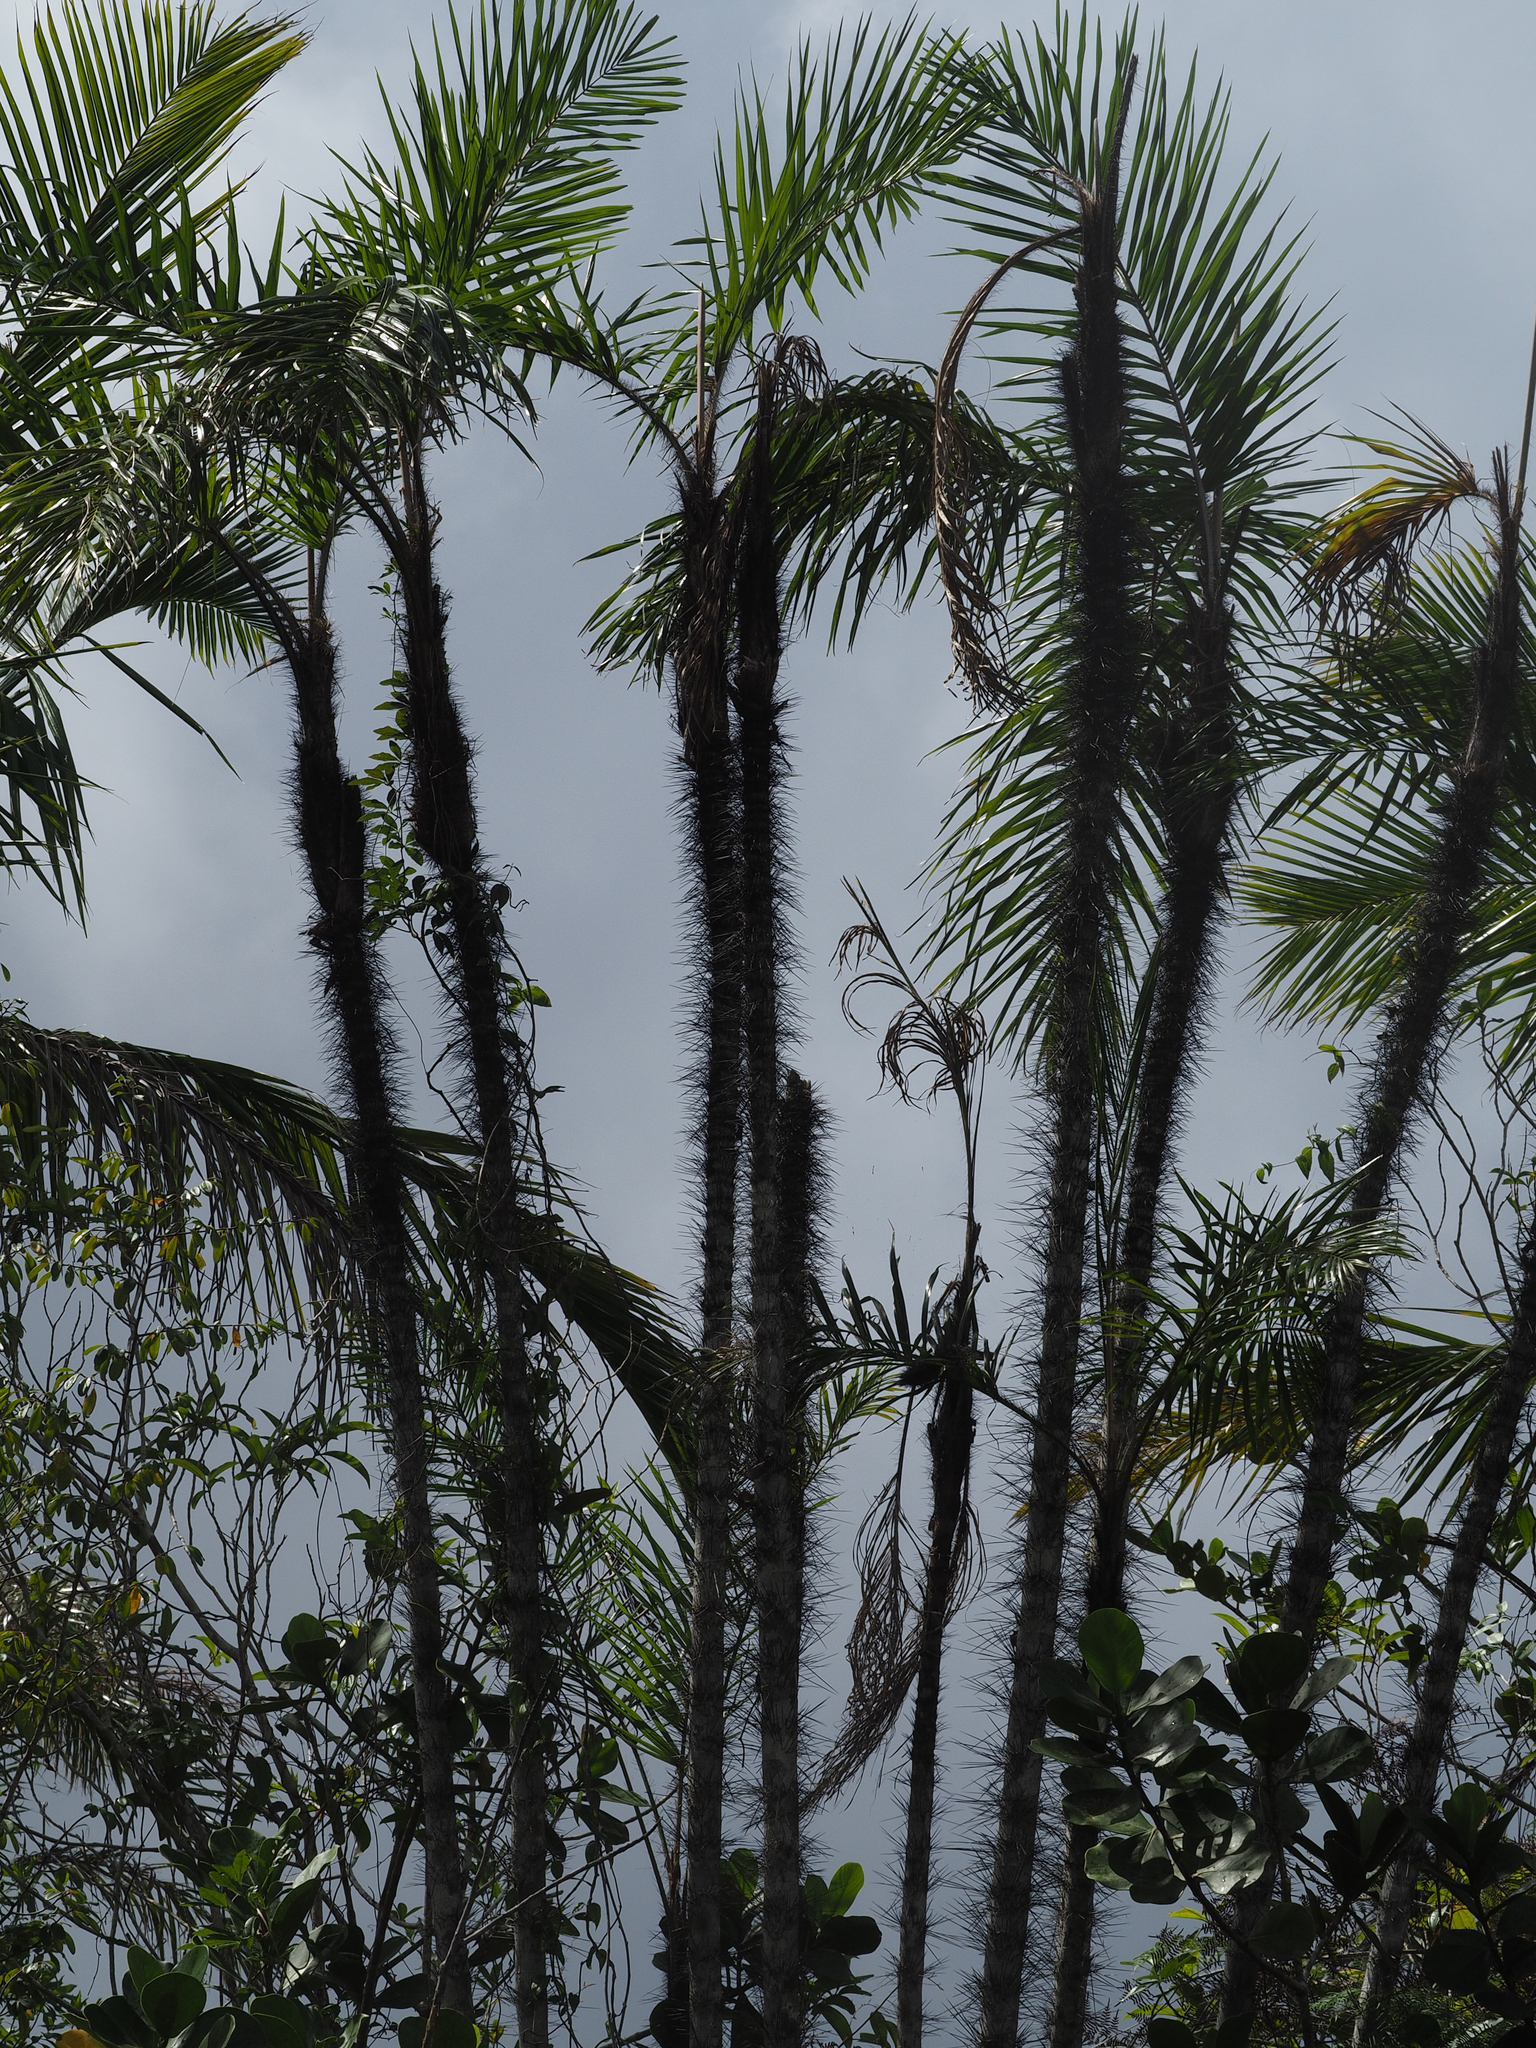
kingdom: Plantae
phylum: Tracheophyta
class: Liliopsida
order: Arecales
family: Arecaceae
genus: Bactris
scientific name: Bactris cubensis
